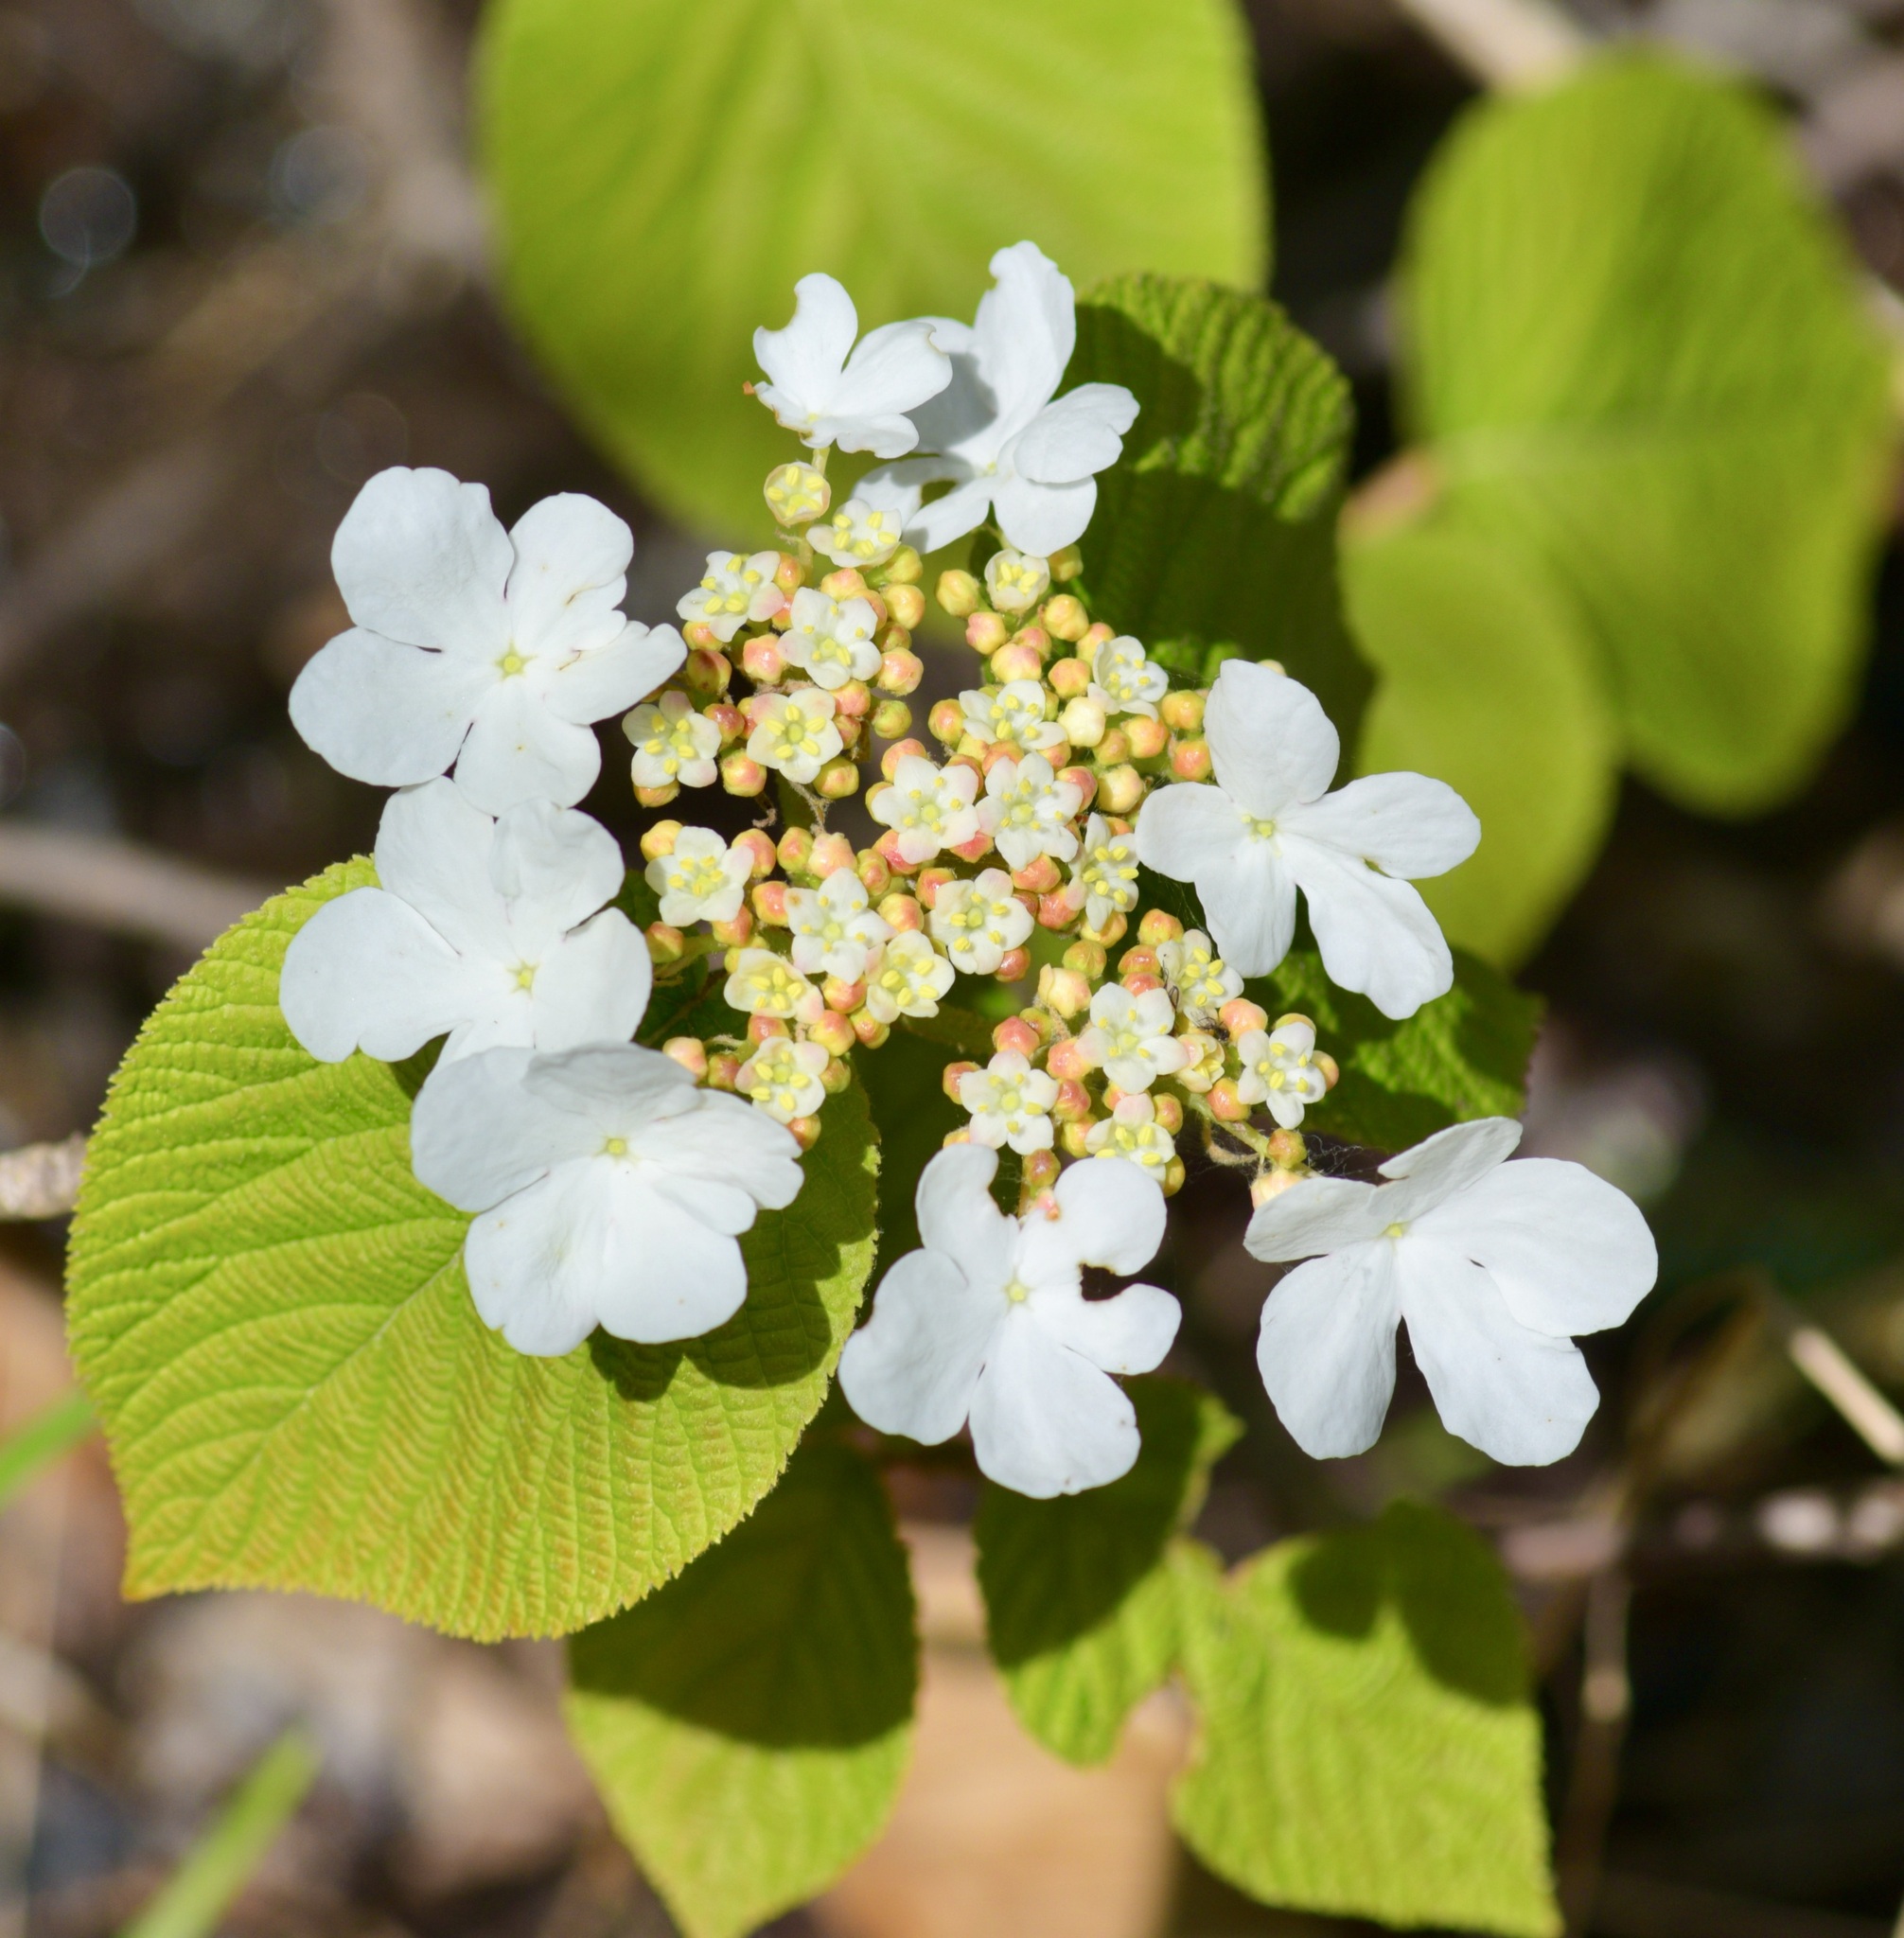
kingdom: Plantae
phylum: Tracheophyta
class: Magnoliopsida
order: Dipsacales
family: Viburnaceae
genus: Viburnum
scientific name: Viburnum lantanoides
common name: Hobblebush
